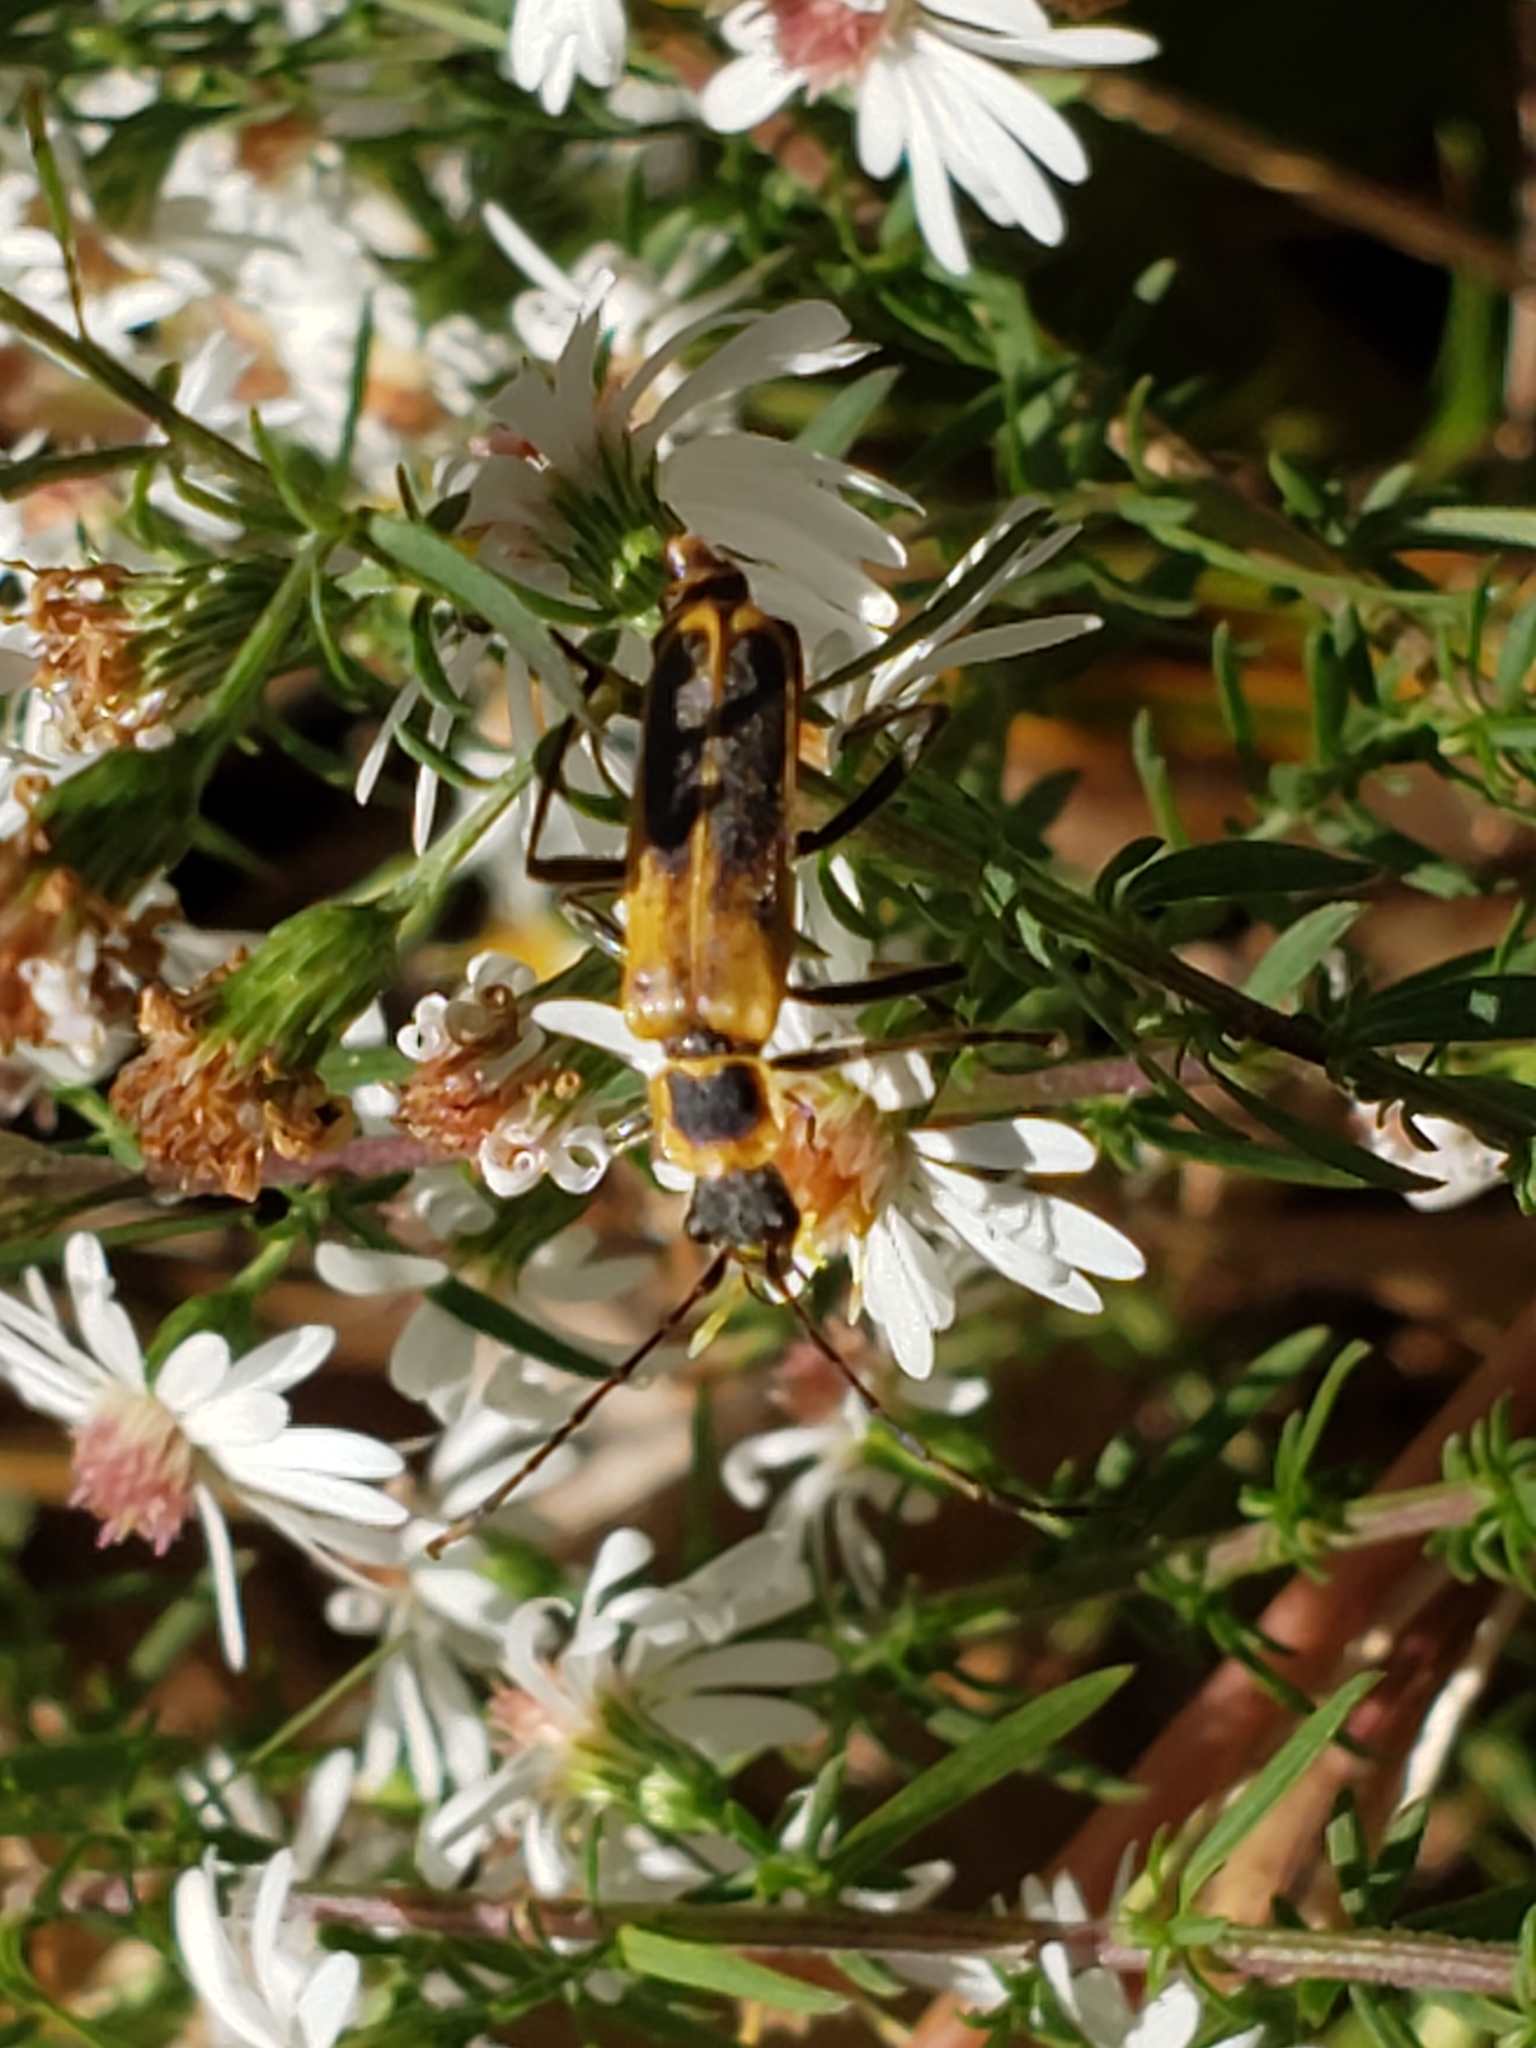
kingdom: Animalia
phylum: Arthropoda
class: Insecta
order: Coleoptera
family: Cantharidae
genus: Chauliognathus
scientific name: Chauliognathus pensylvanicus
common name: Goldenrod soldier beetle
